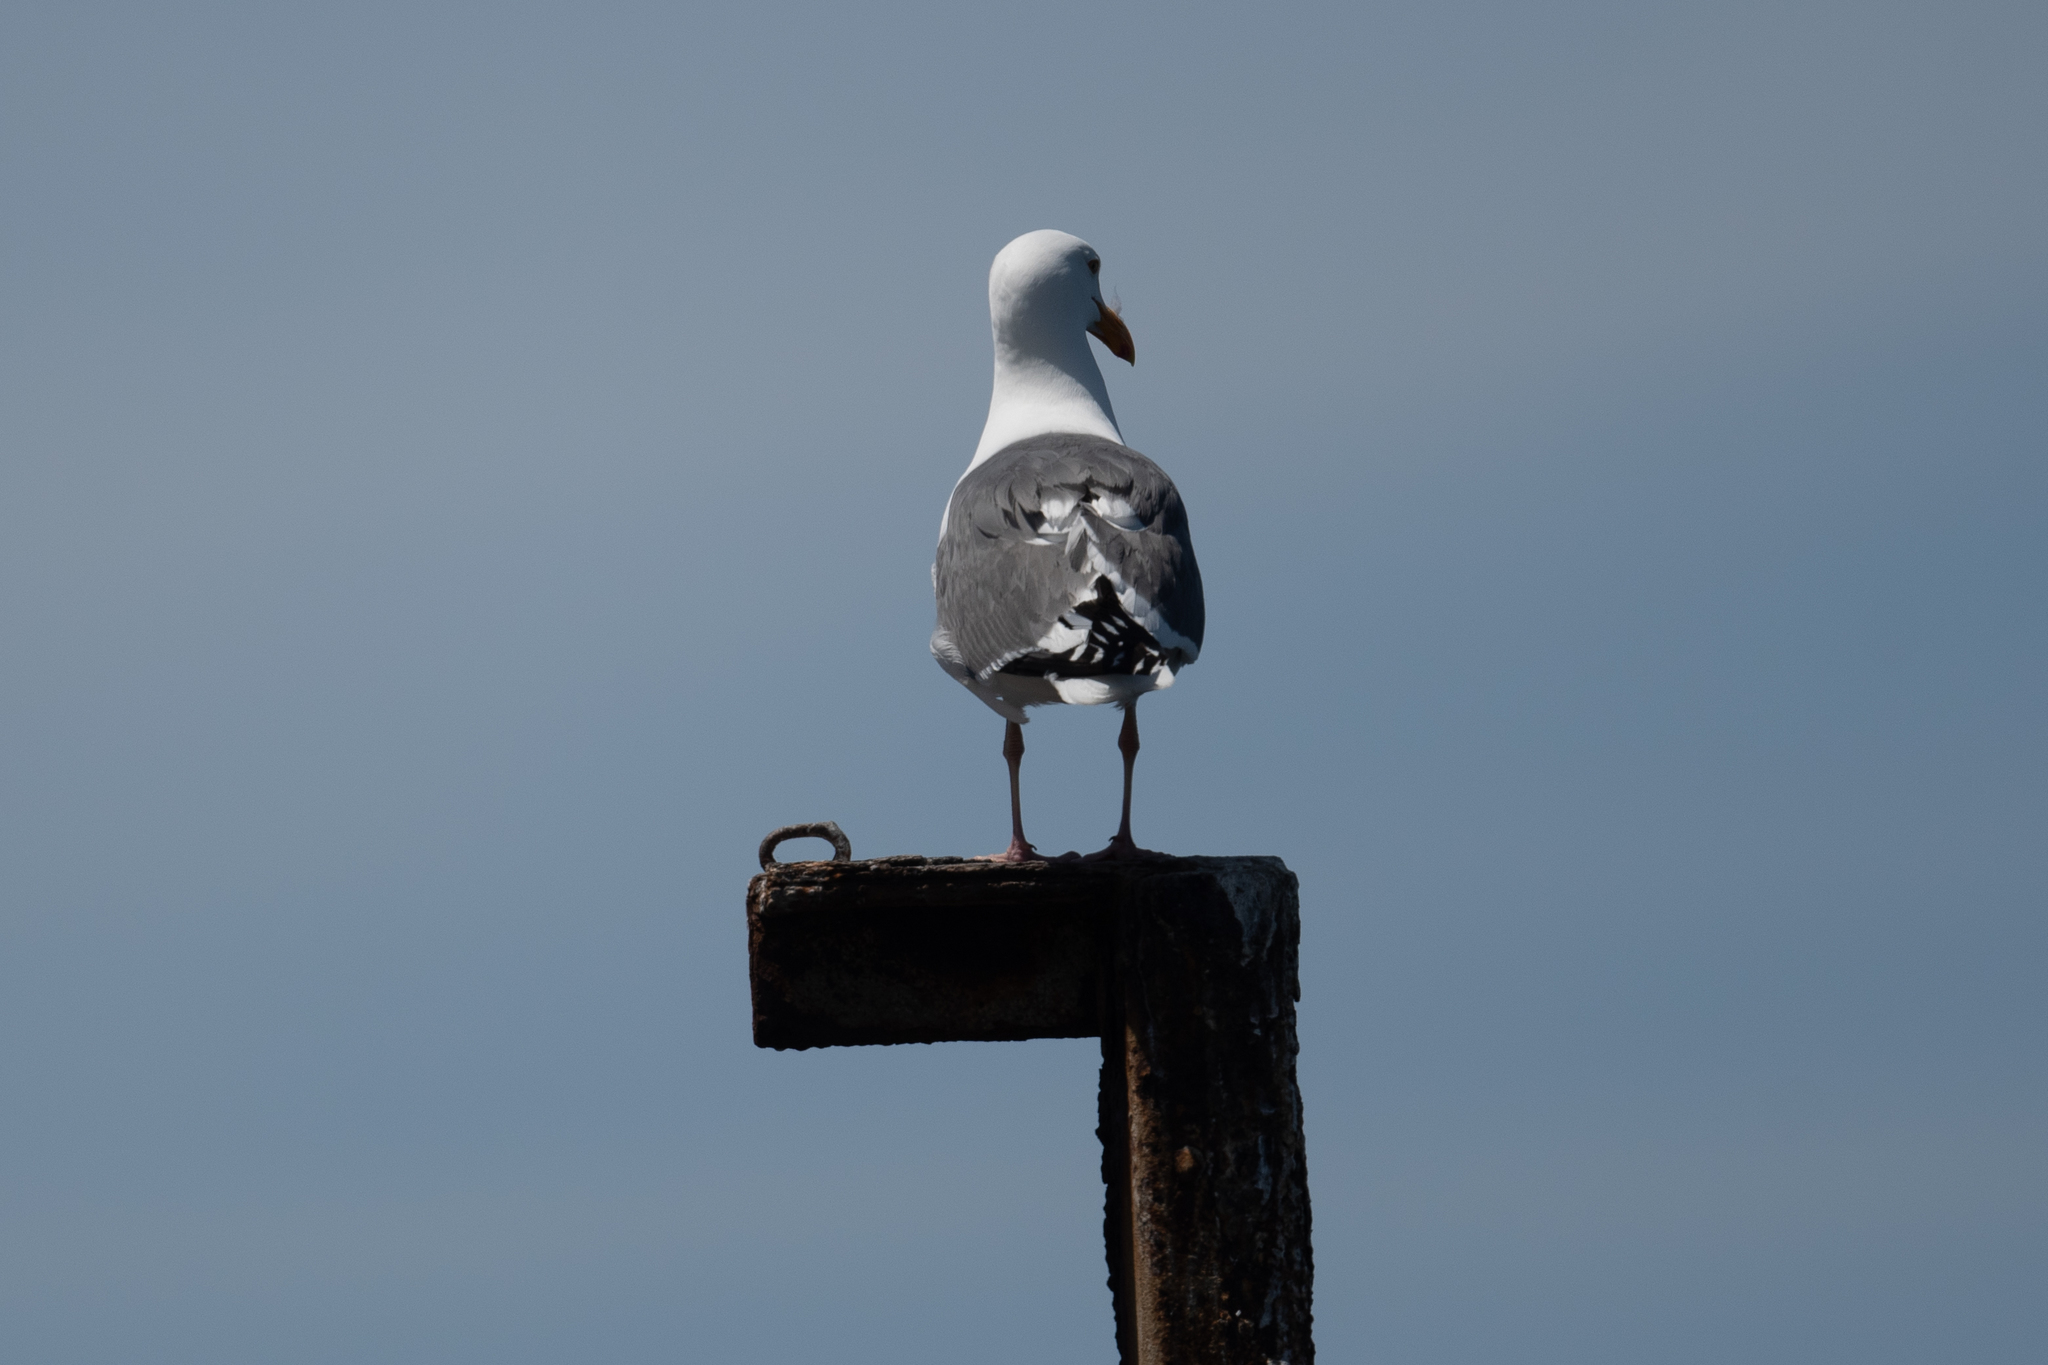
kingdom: Animalia
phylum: Chordata
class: Aves
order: Charadriiformes
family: Laridae
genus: Larus
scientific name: Larus occidentalis
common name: Western gull
